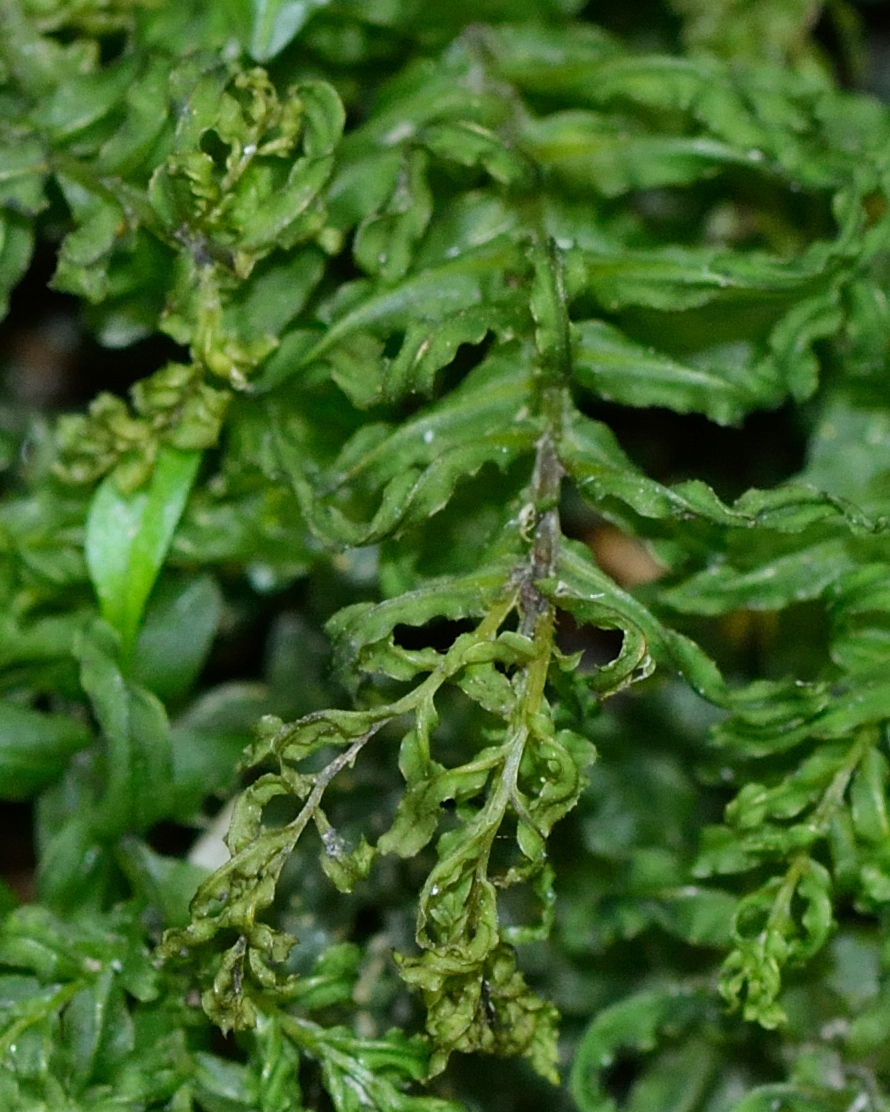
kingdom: Plantae
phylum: Bryophyta
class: Bryopsida
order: Bryales
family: Mniaceae
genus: Plagiomnium
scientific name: Plagiomnium undulatum
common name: Hart's-tongue thyme-moss
